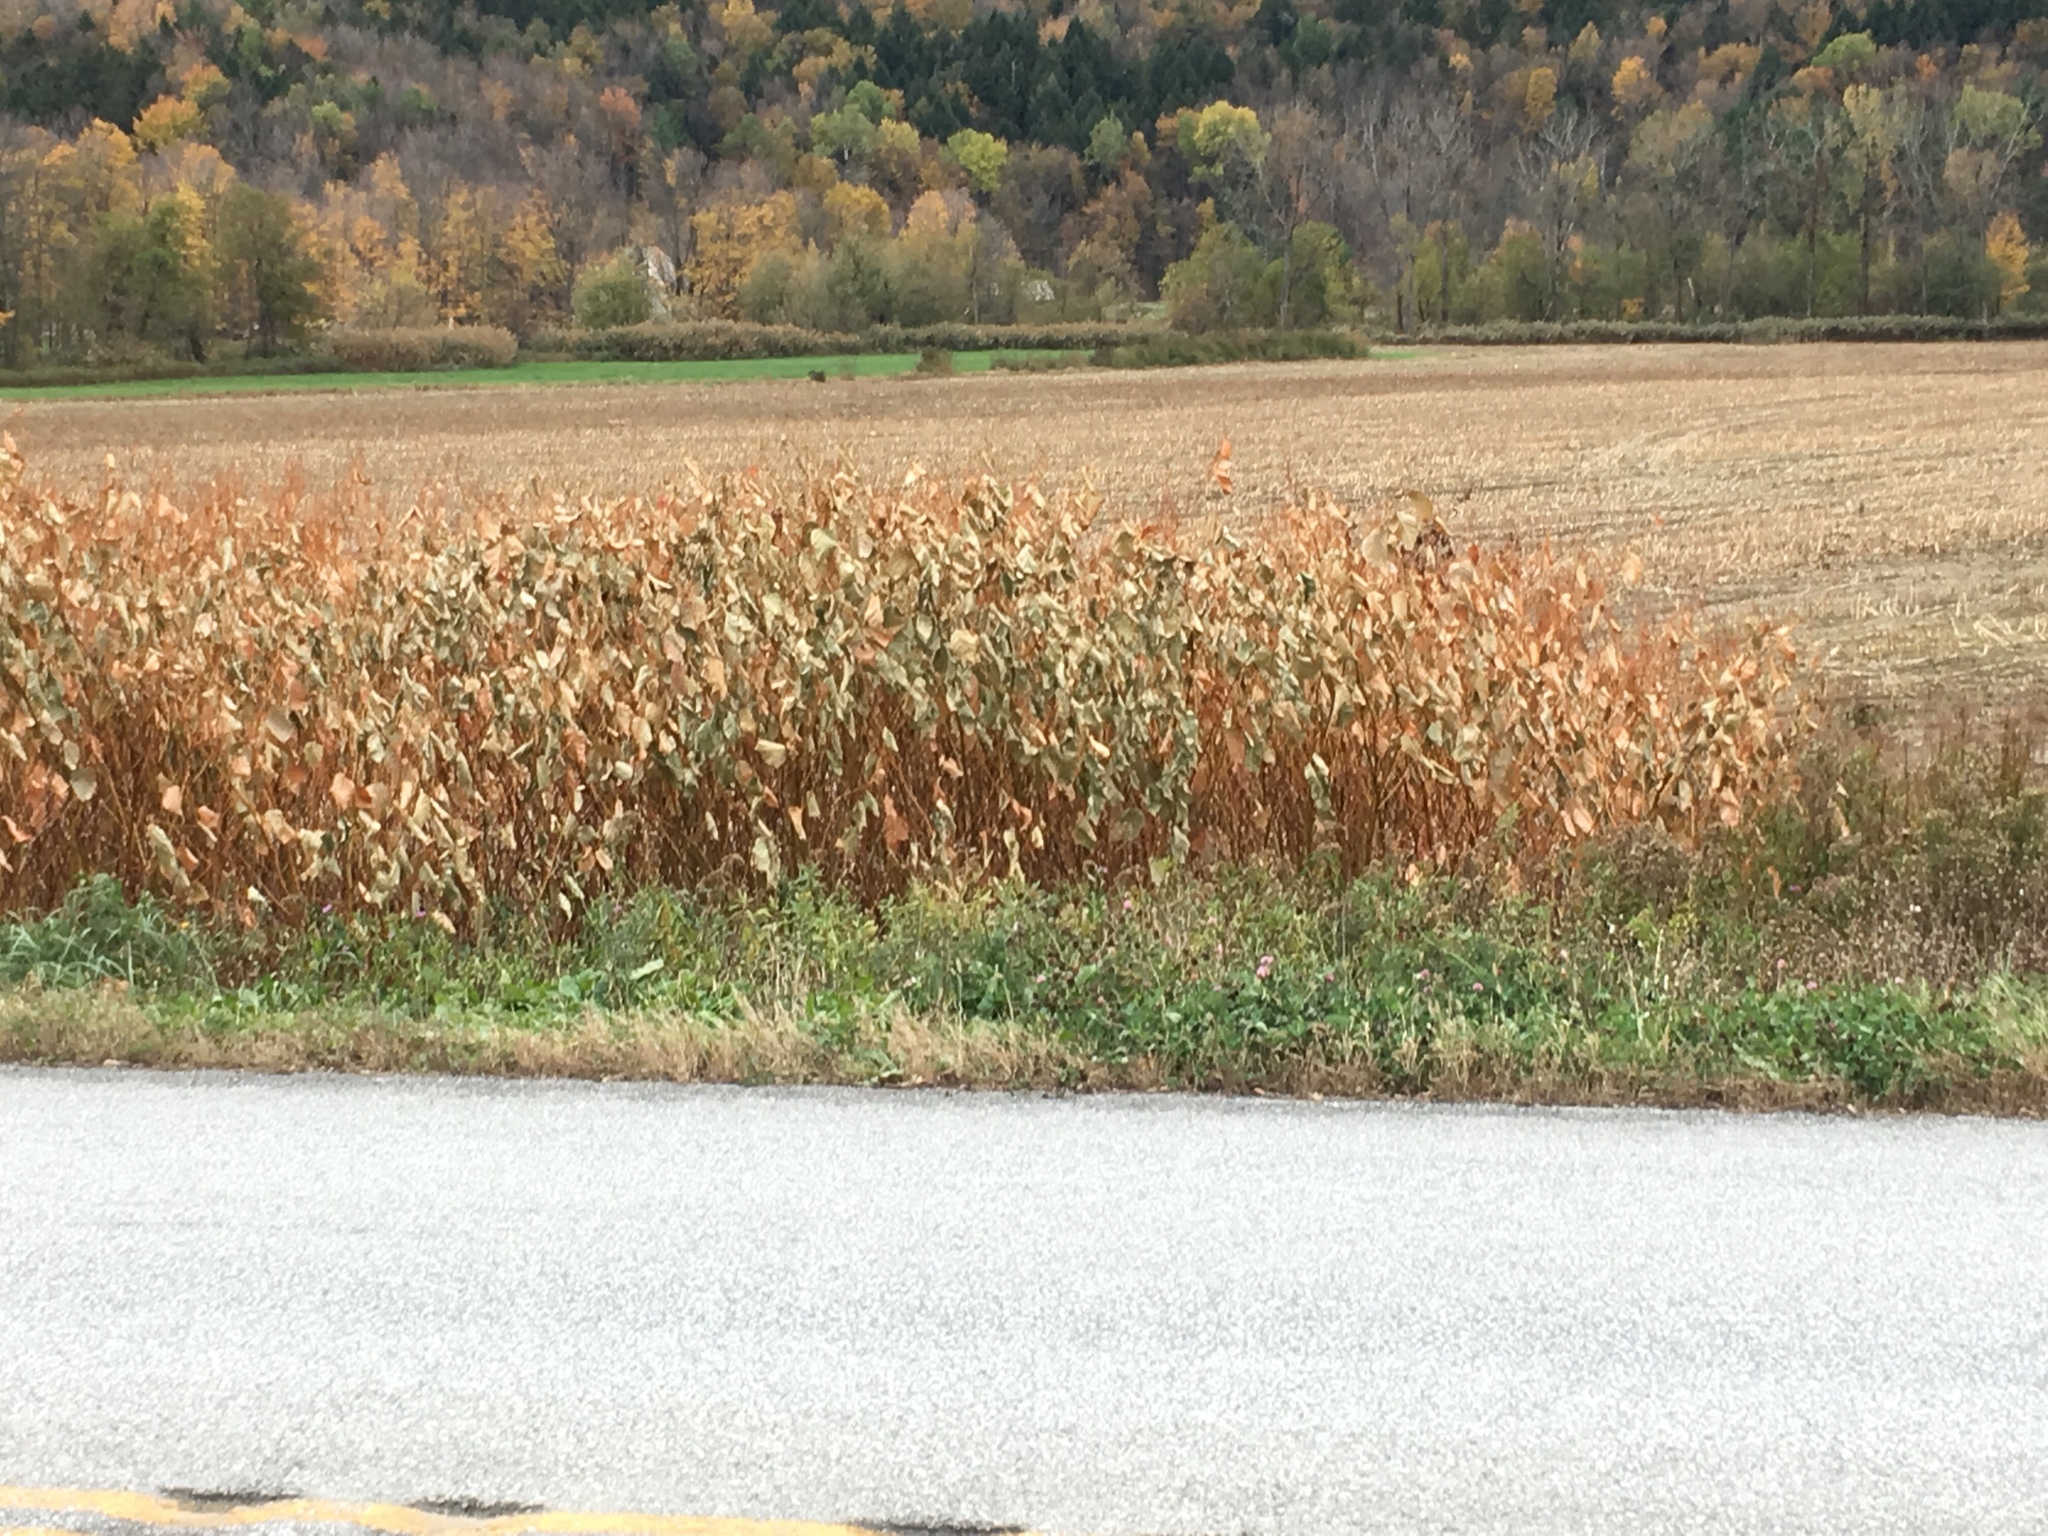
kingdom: Plantae
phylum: Tracheophyta
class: Magnoliopsida
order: Caryophyllales
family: Polygonaceae
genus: Reynoutria
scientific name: Reynoutria japonica
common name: Japanese knotweed
